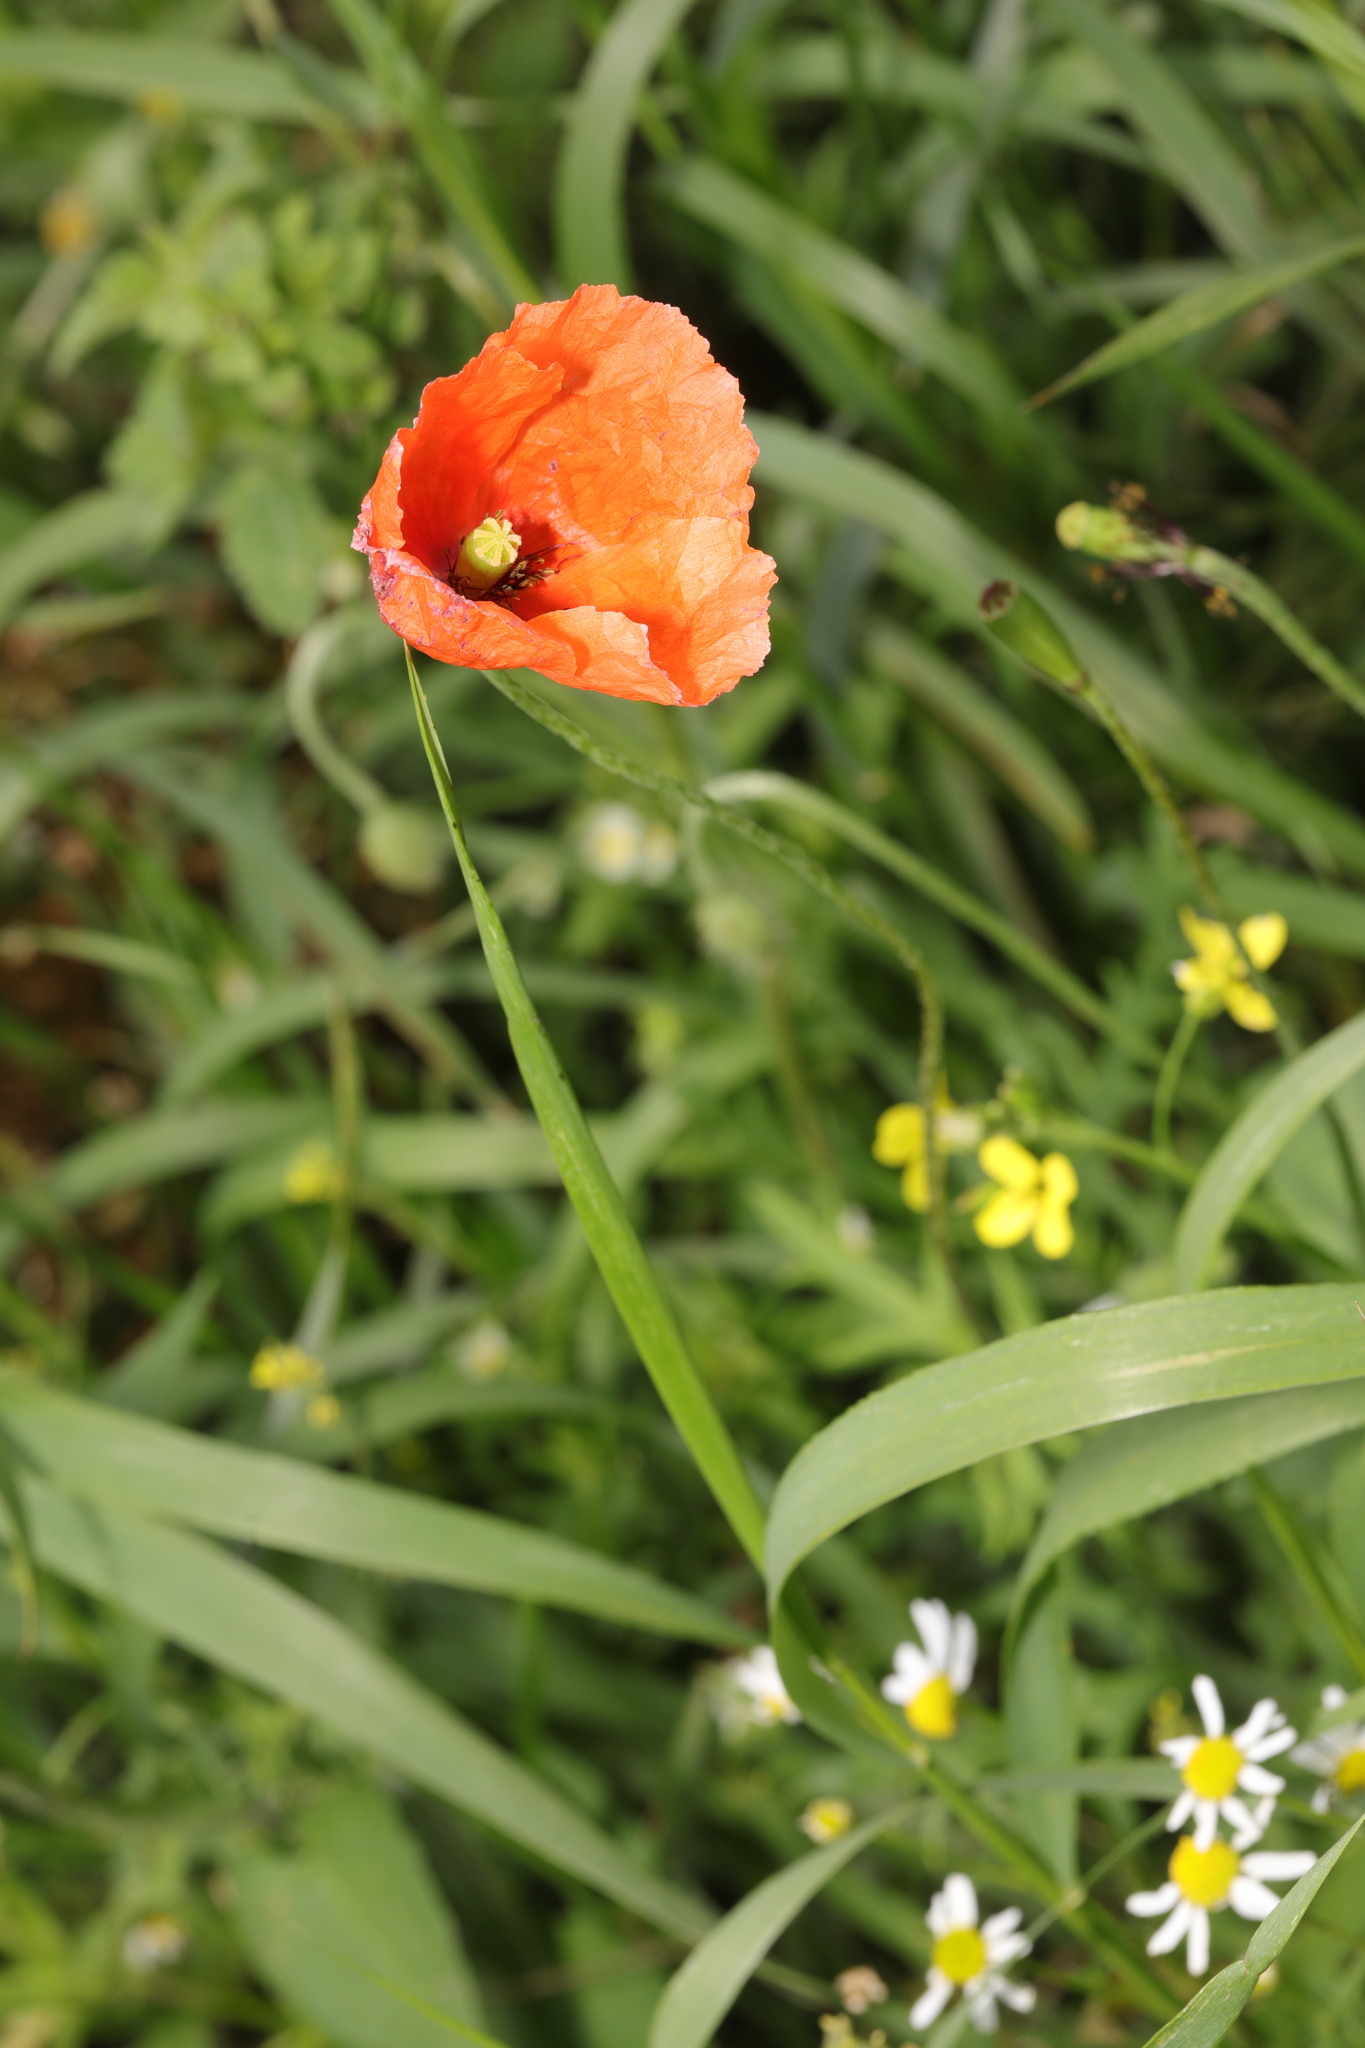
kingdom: Plantae
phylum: Tracheophyta
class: Magnoliopsida
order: Ranunculales
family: Papaveraceae
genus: Papaver
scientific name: Papaver dubium
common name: Long-headed poppy
